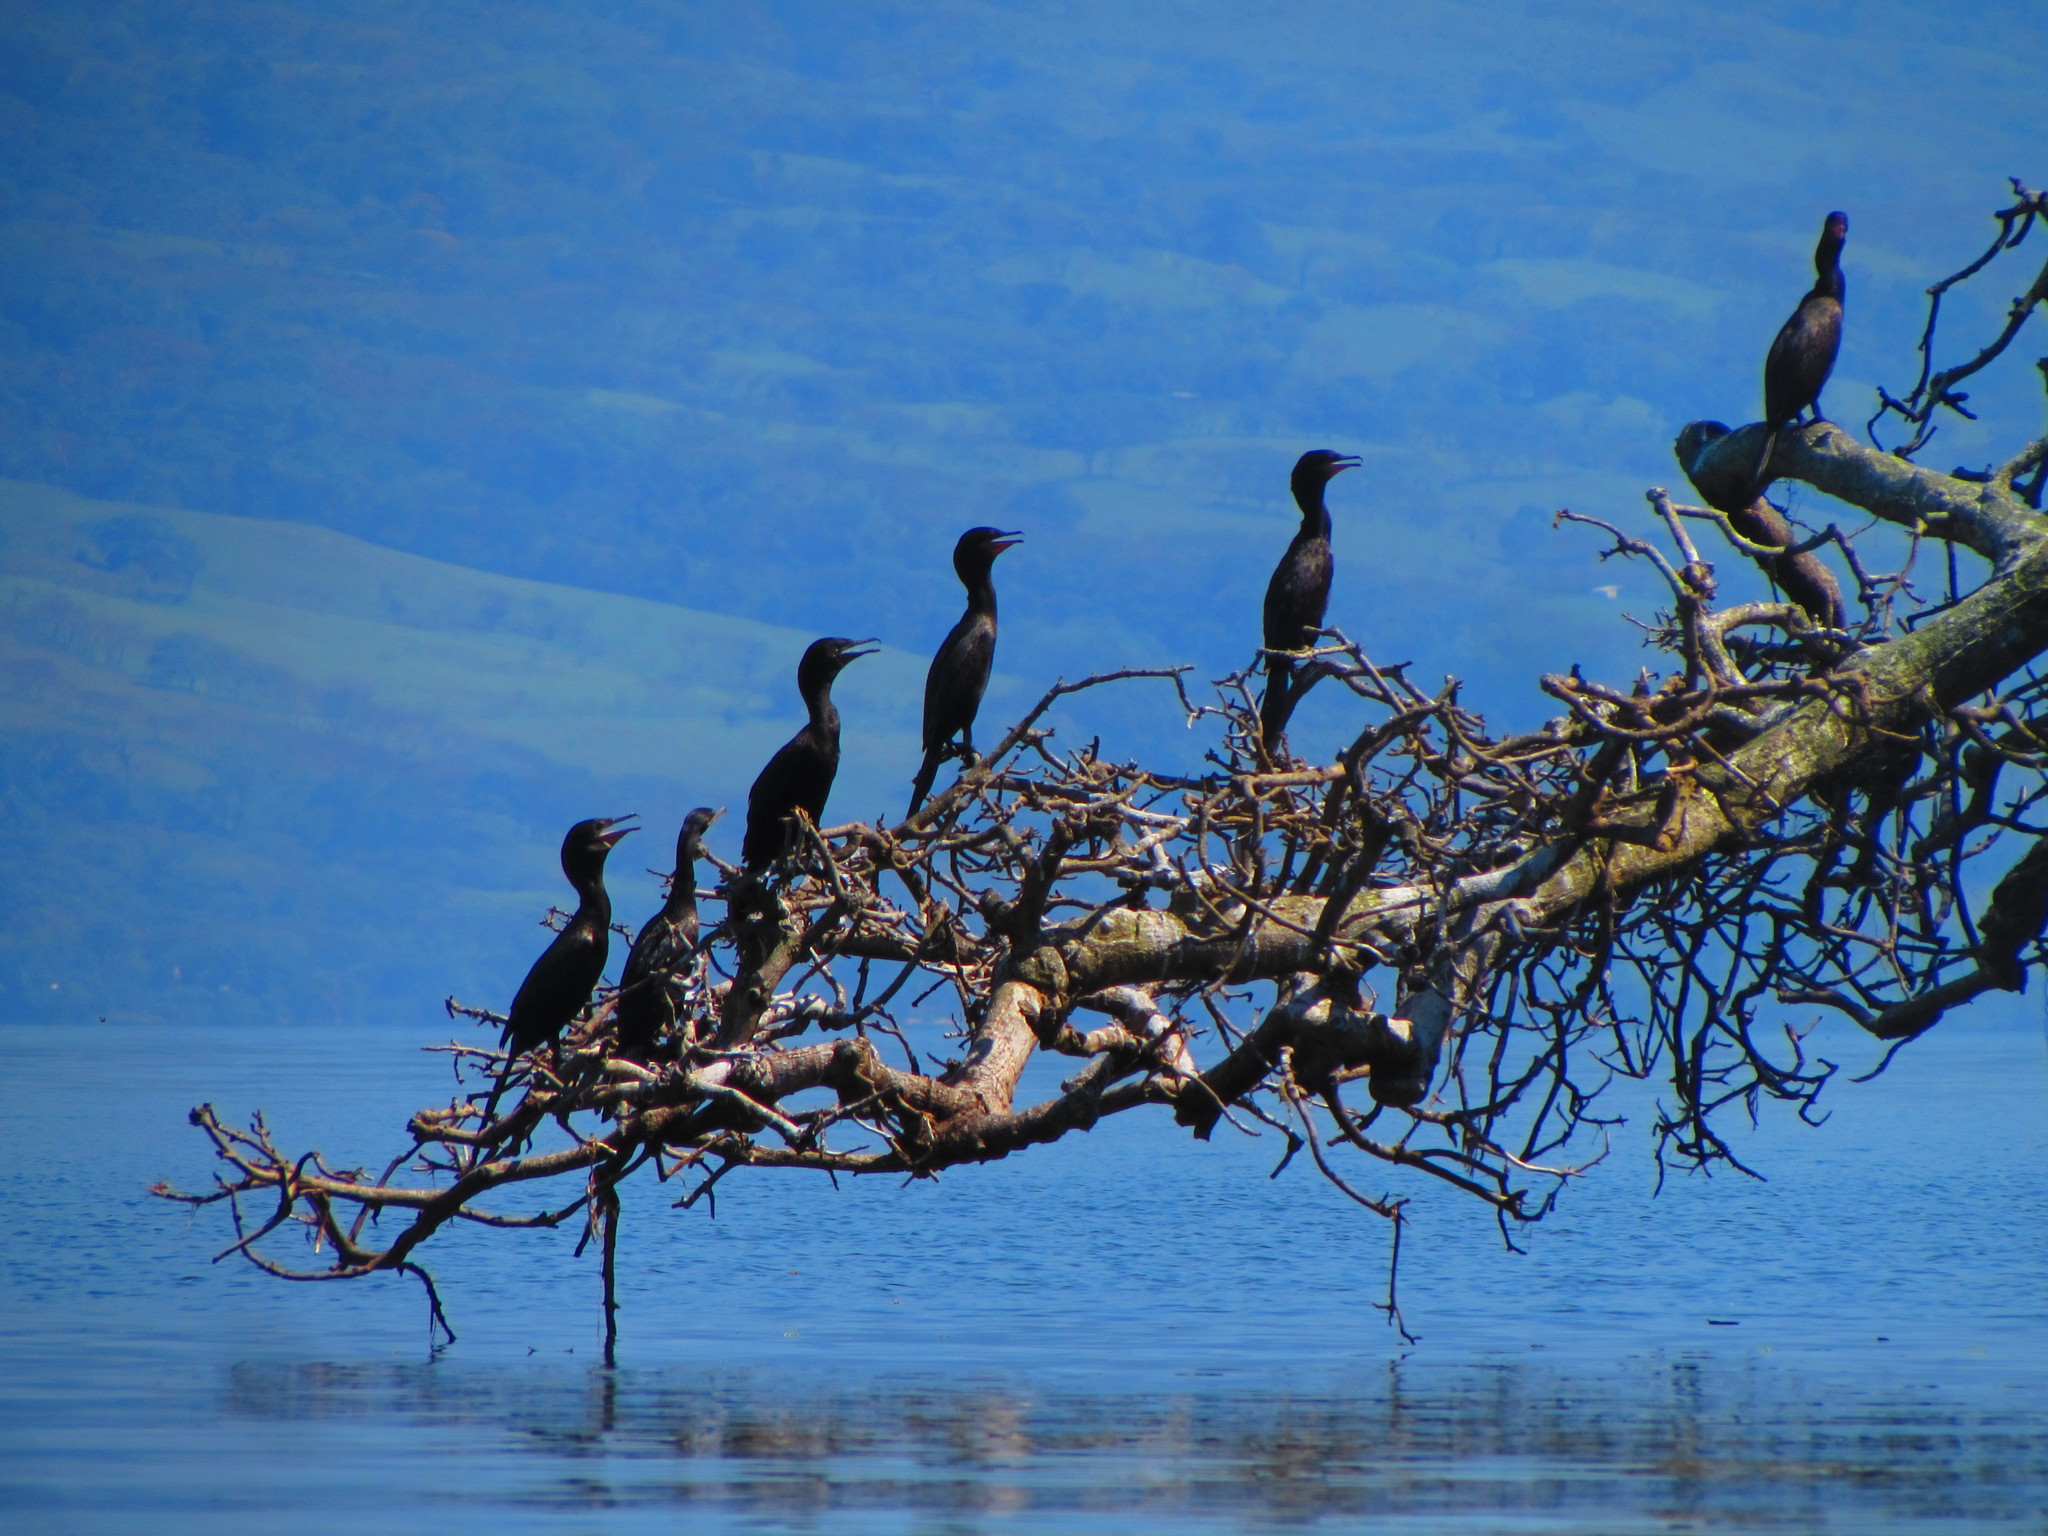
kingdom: Animalia
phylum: Chordata
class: Aves
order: Suliformes
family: Phalacrocoracidae
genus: Phalacrocorax
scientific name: Phalacrocorax brasilianus
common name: Neotropic cormorant
